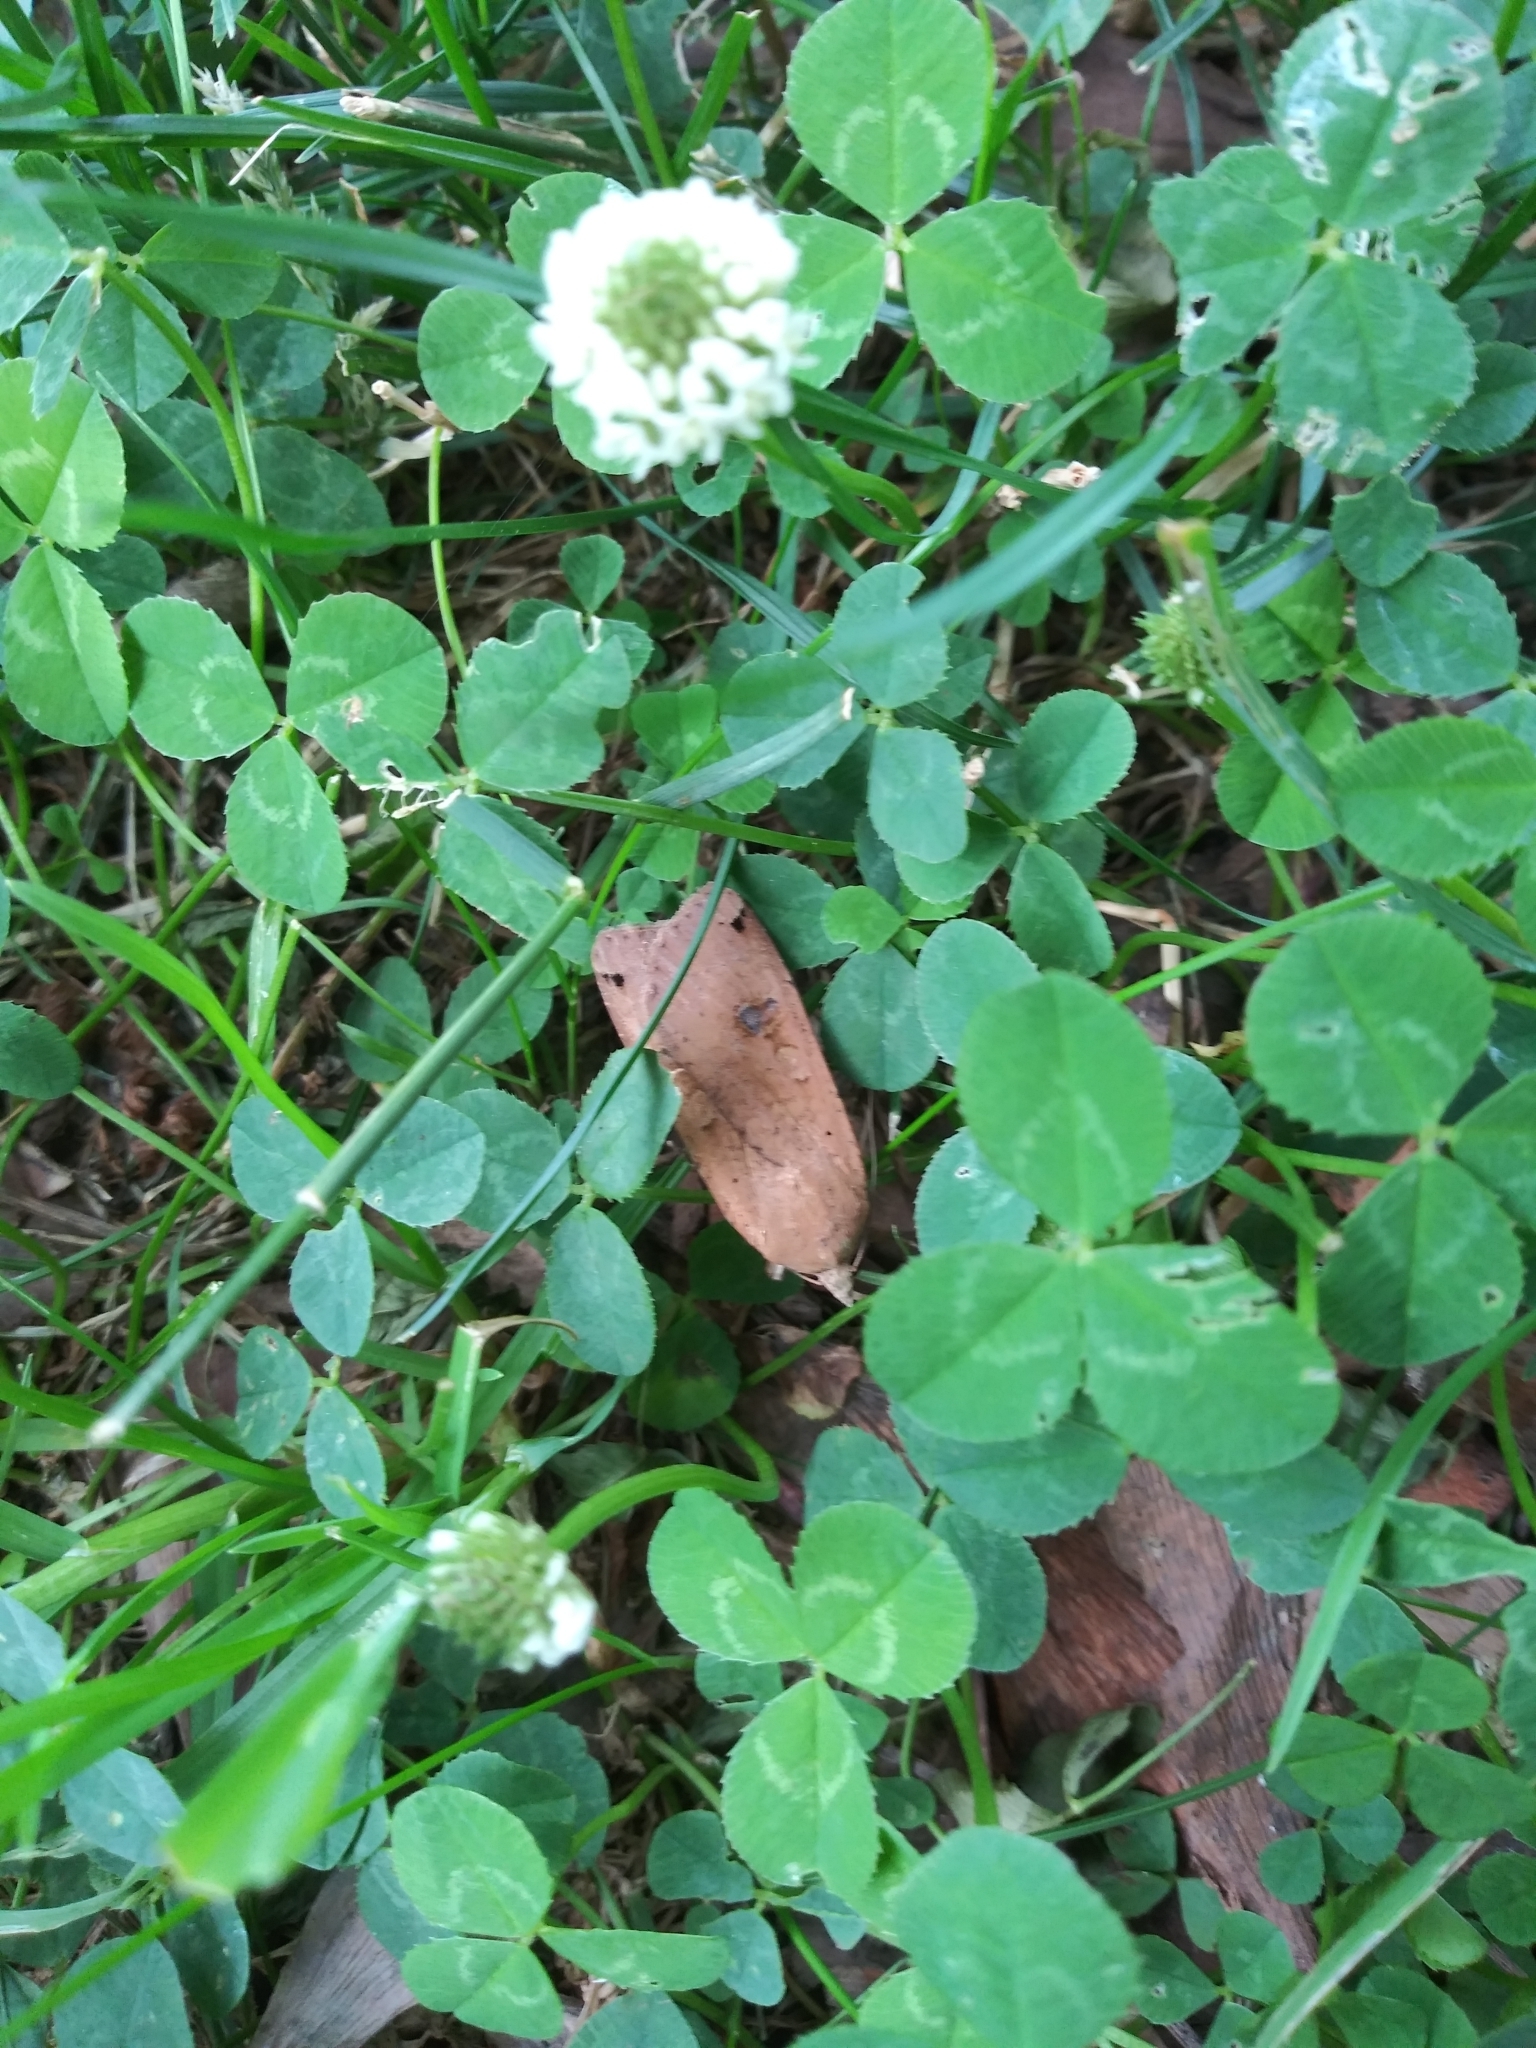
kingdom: Animalia
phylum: Arthropoda
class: Insecta
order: Lepidoptera
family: Noctuidae
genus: Noctua
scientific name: Noctua pronuba
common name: Large yellow underwing
